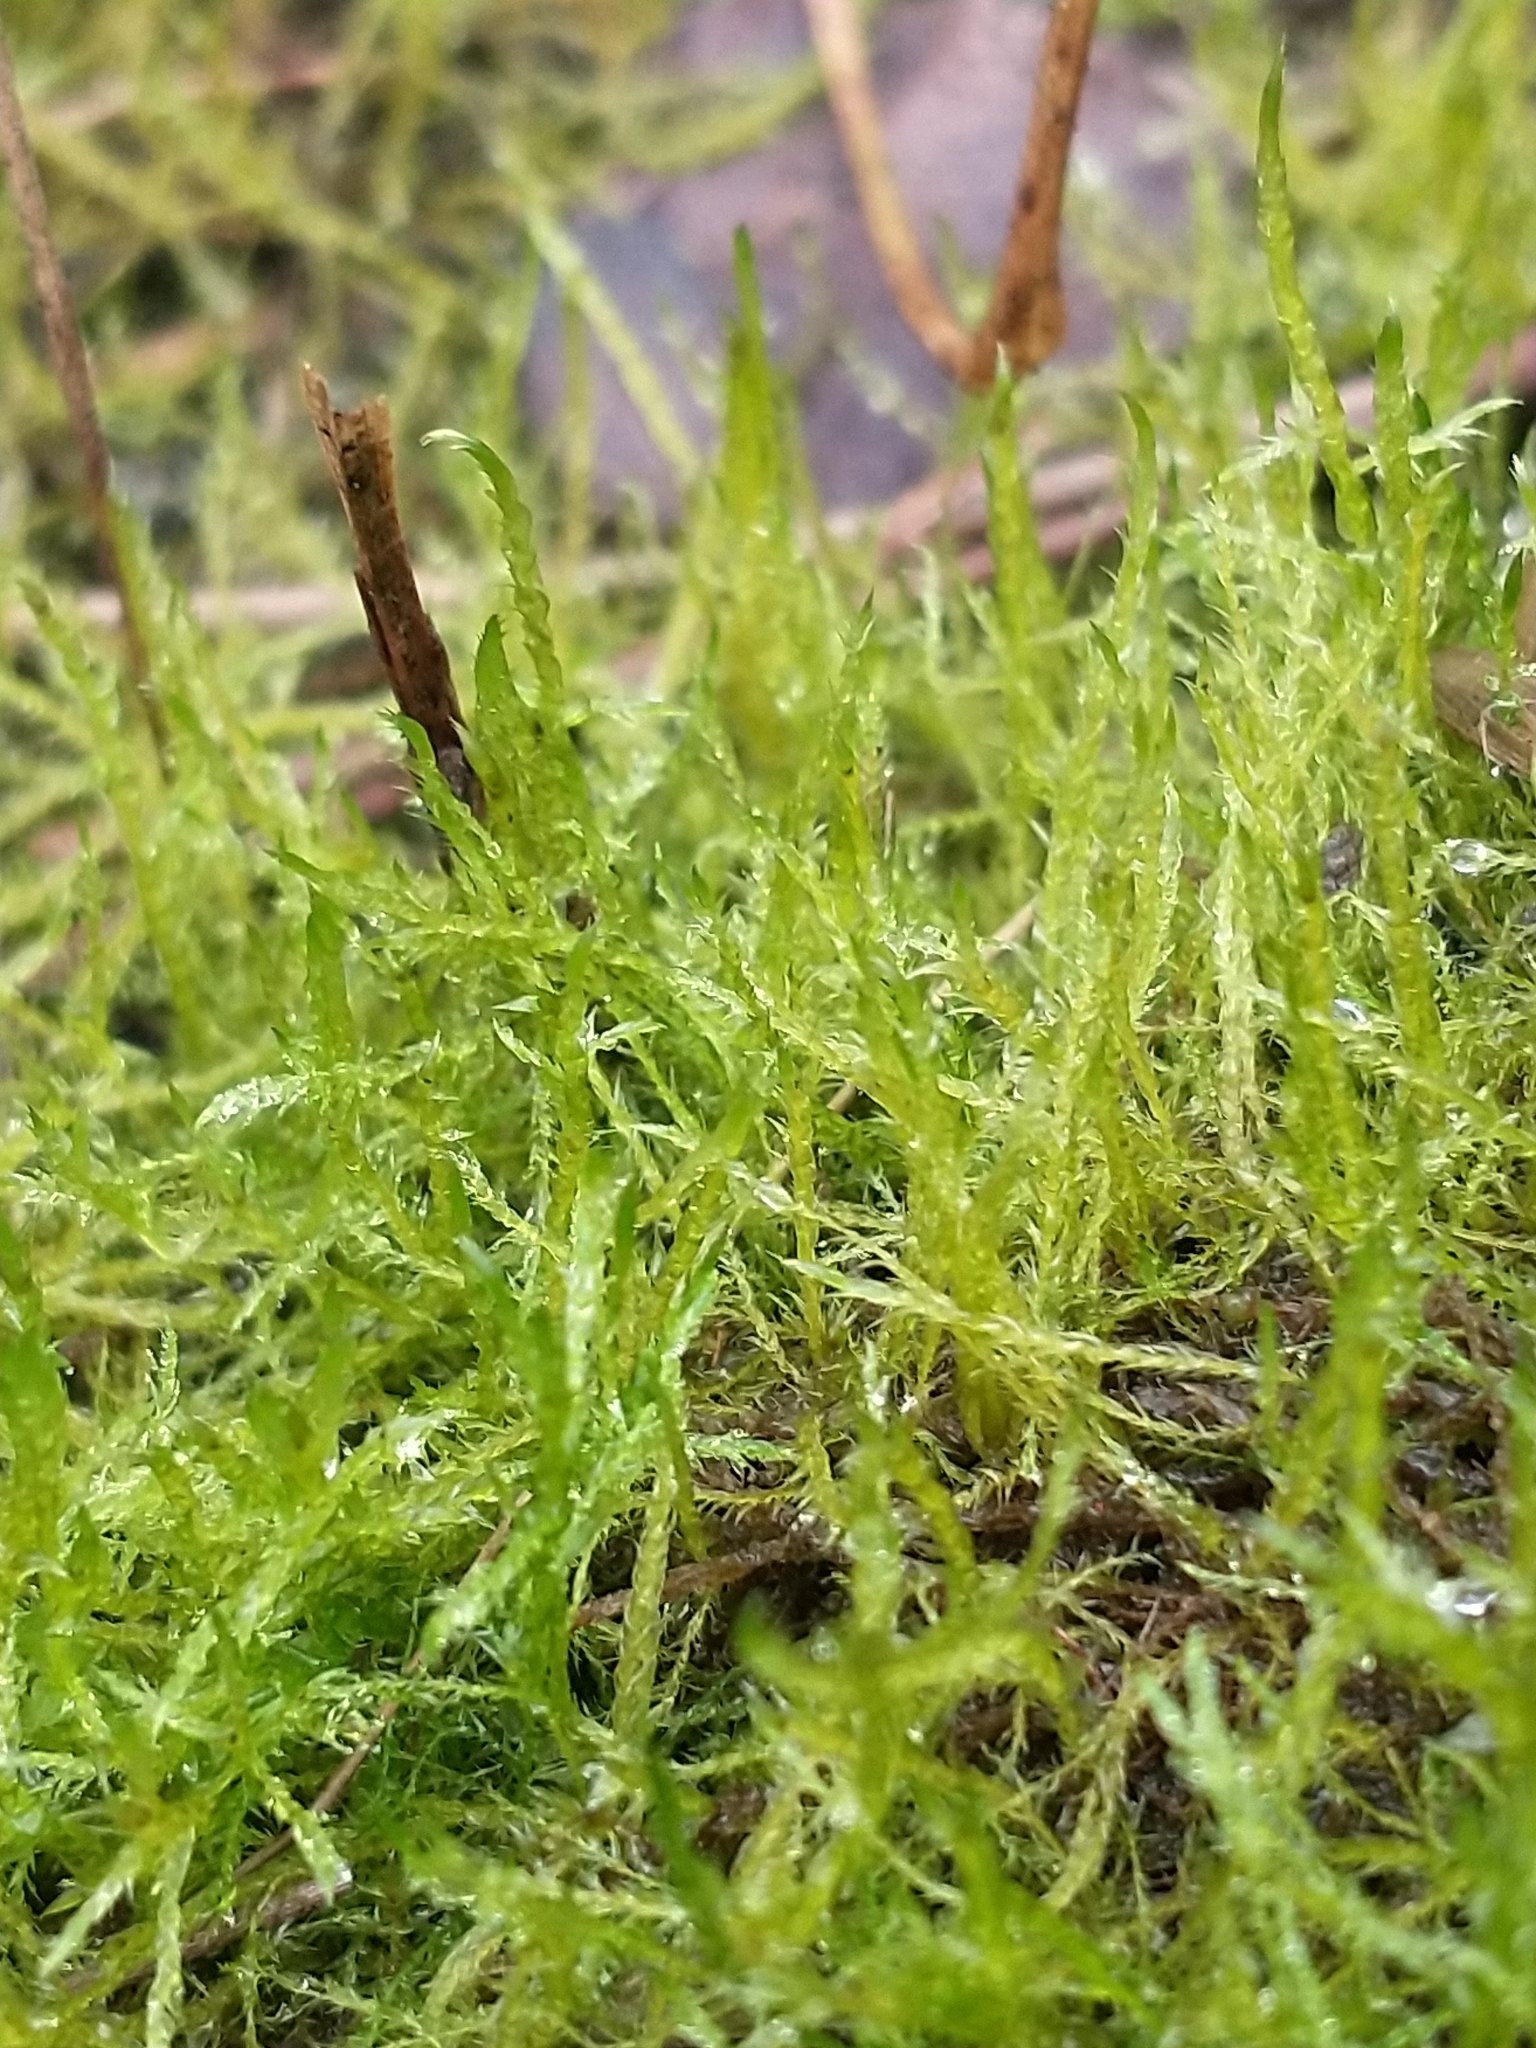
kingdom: Plantae
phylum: Bryophyta
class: Bryopsida
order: Hypnales
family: Amblystegiaceae
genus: Drepanocladus
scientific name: Drepanocladus aduncus
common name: Knieff's hook moss
